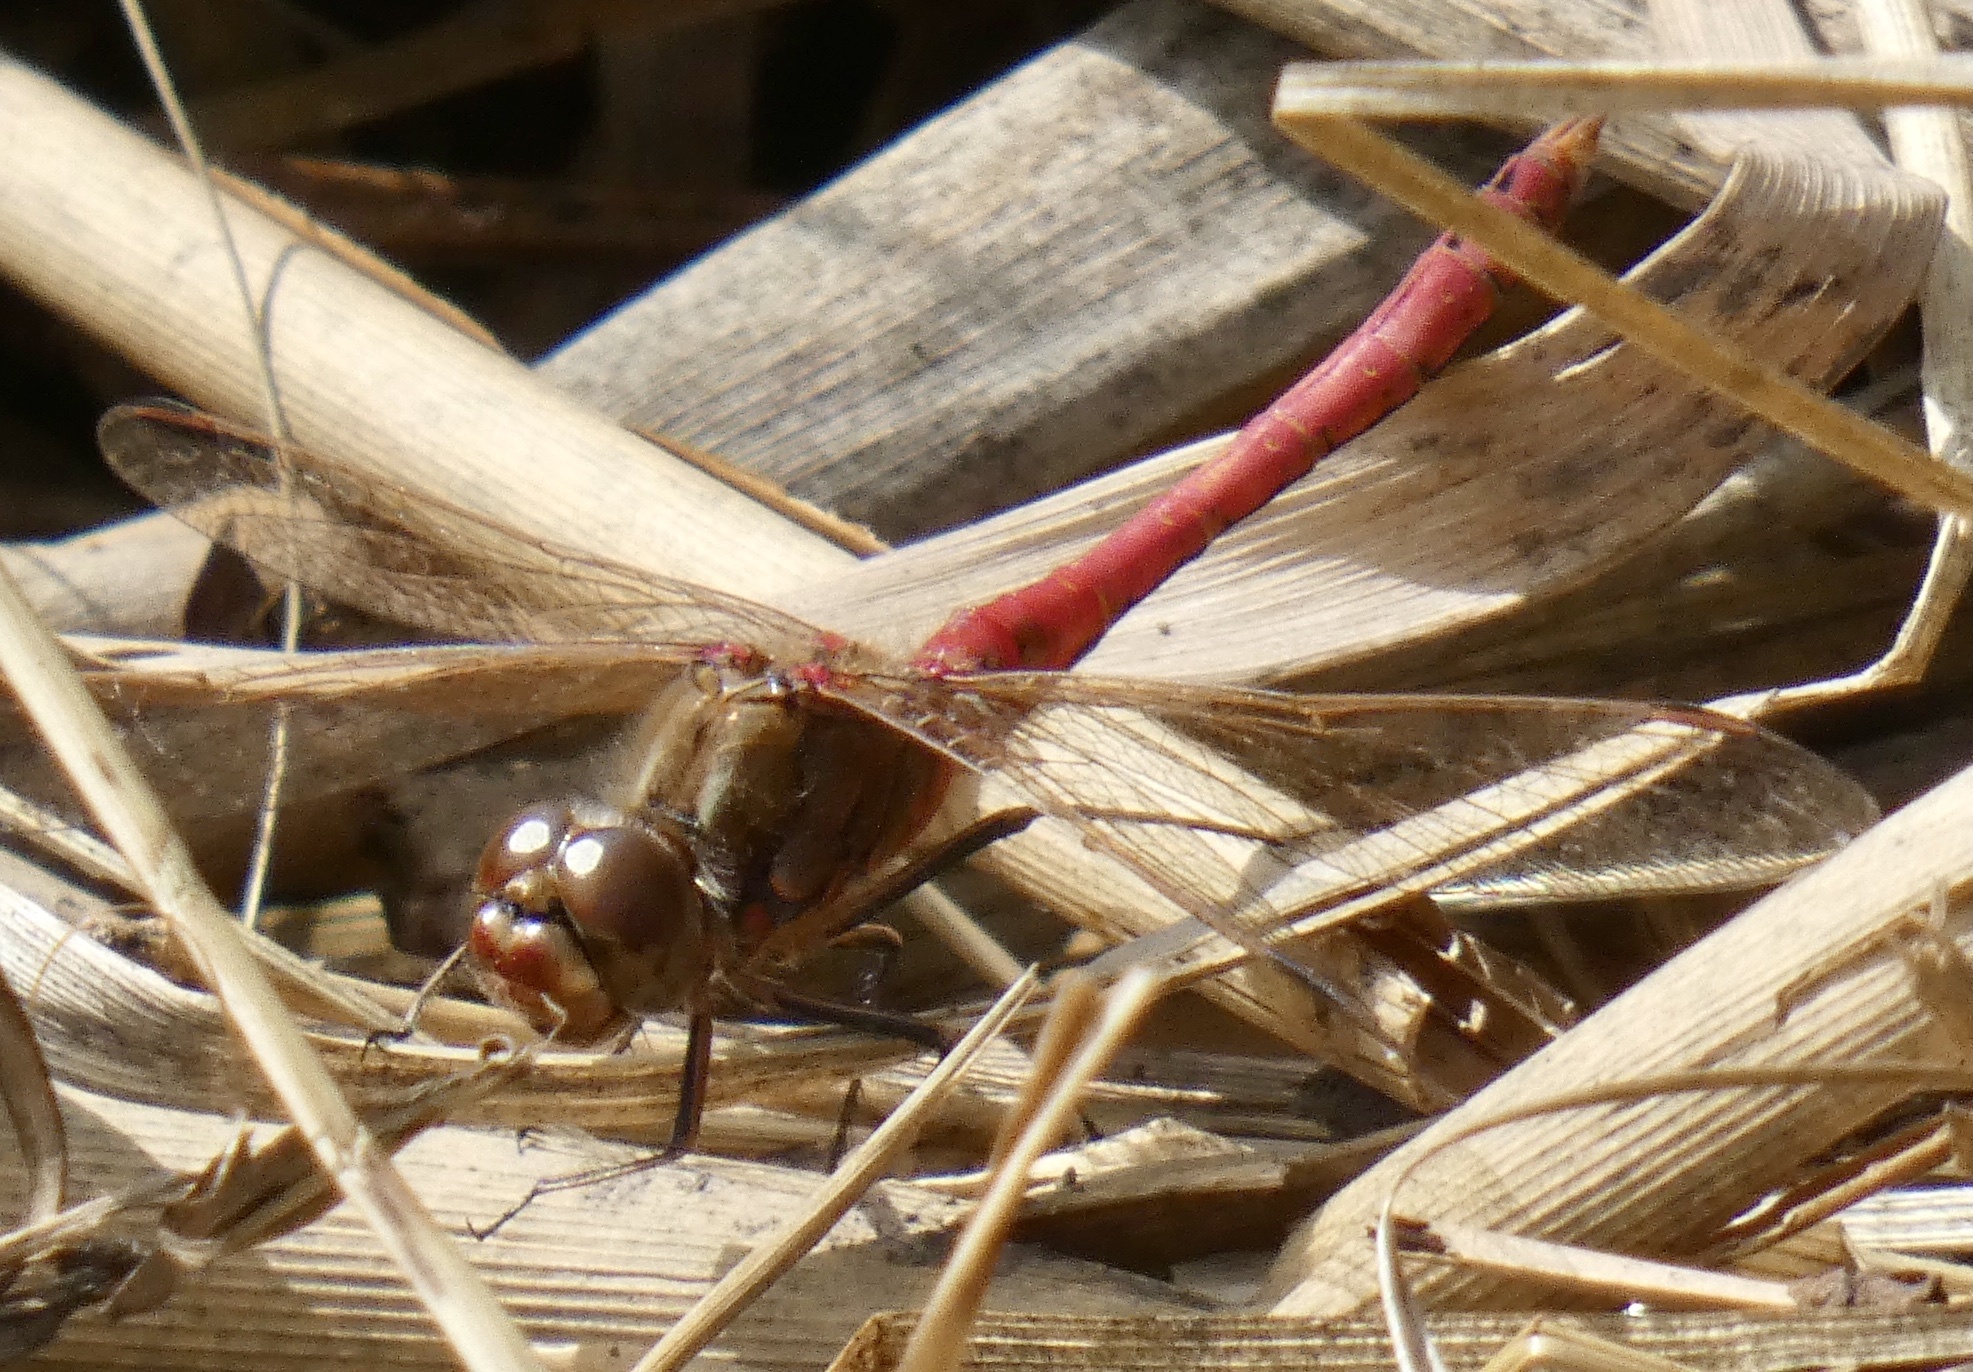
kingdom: Animalia
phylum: Arthropoda
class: Insecta
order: Odonata
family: Libellulidae
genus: Sympetrum
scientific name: Sympetrum vulgatum
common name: Vagrant darter
